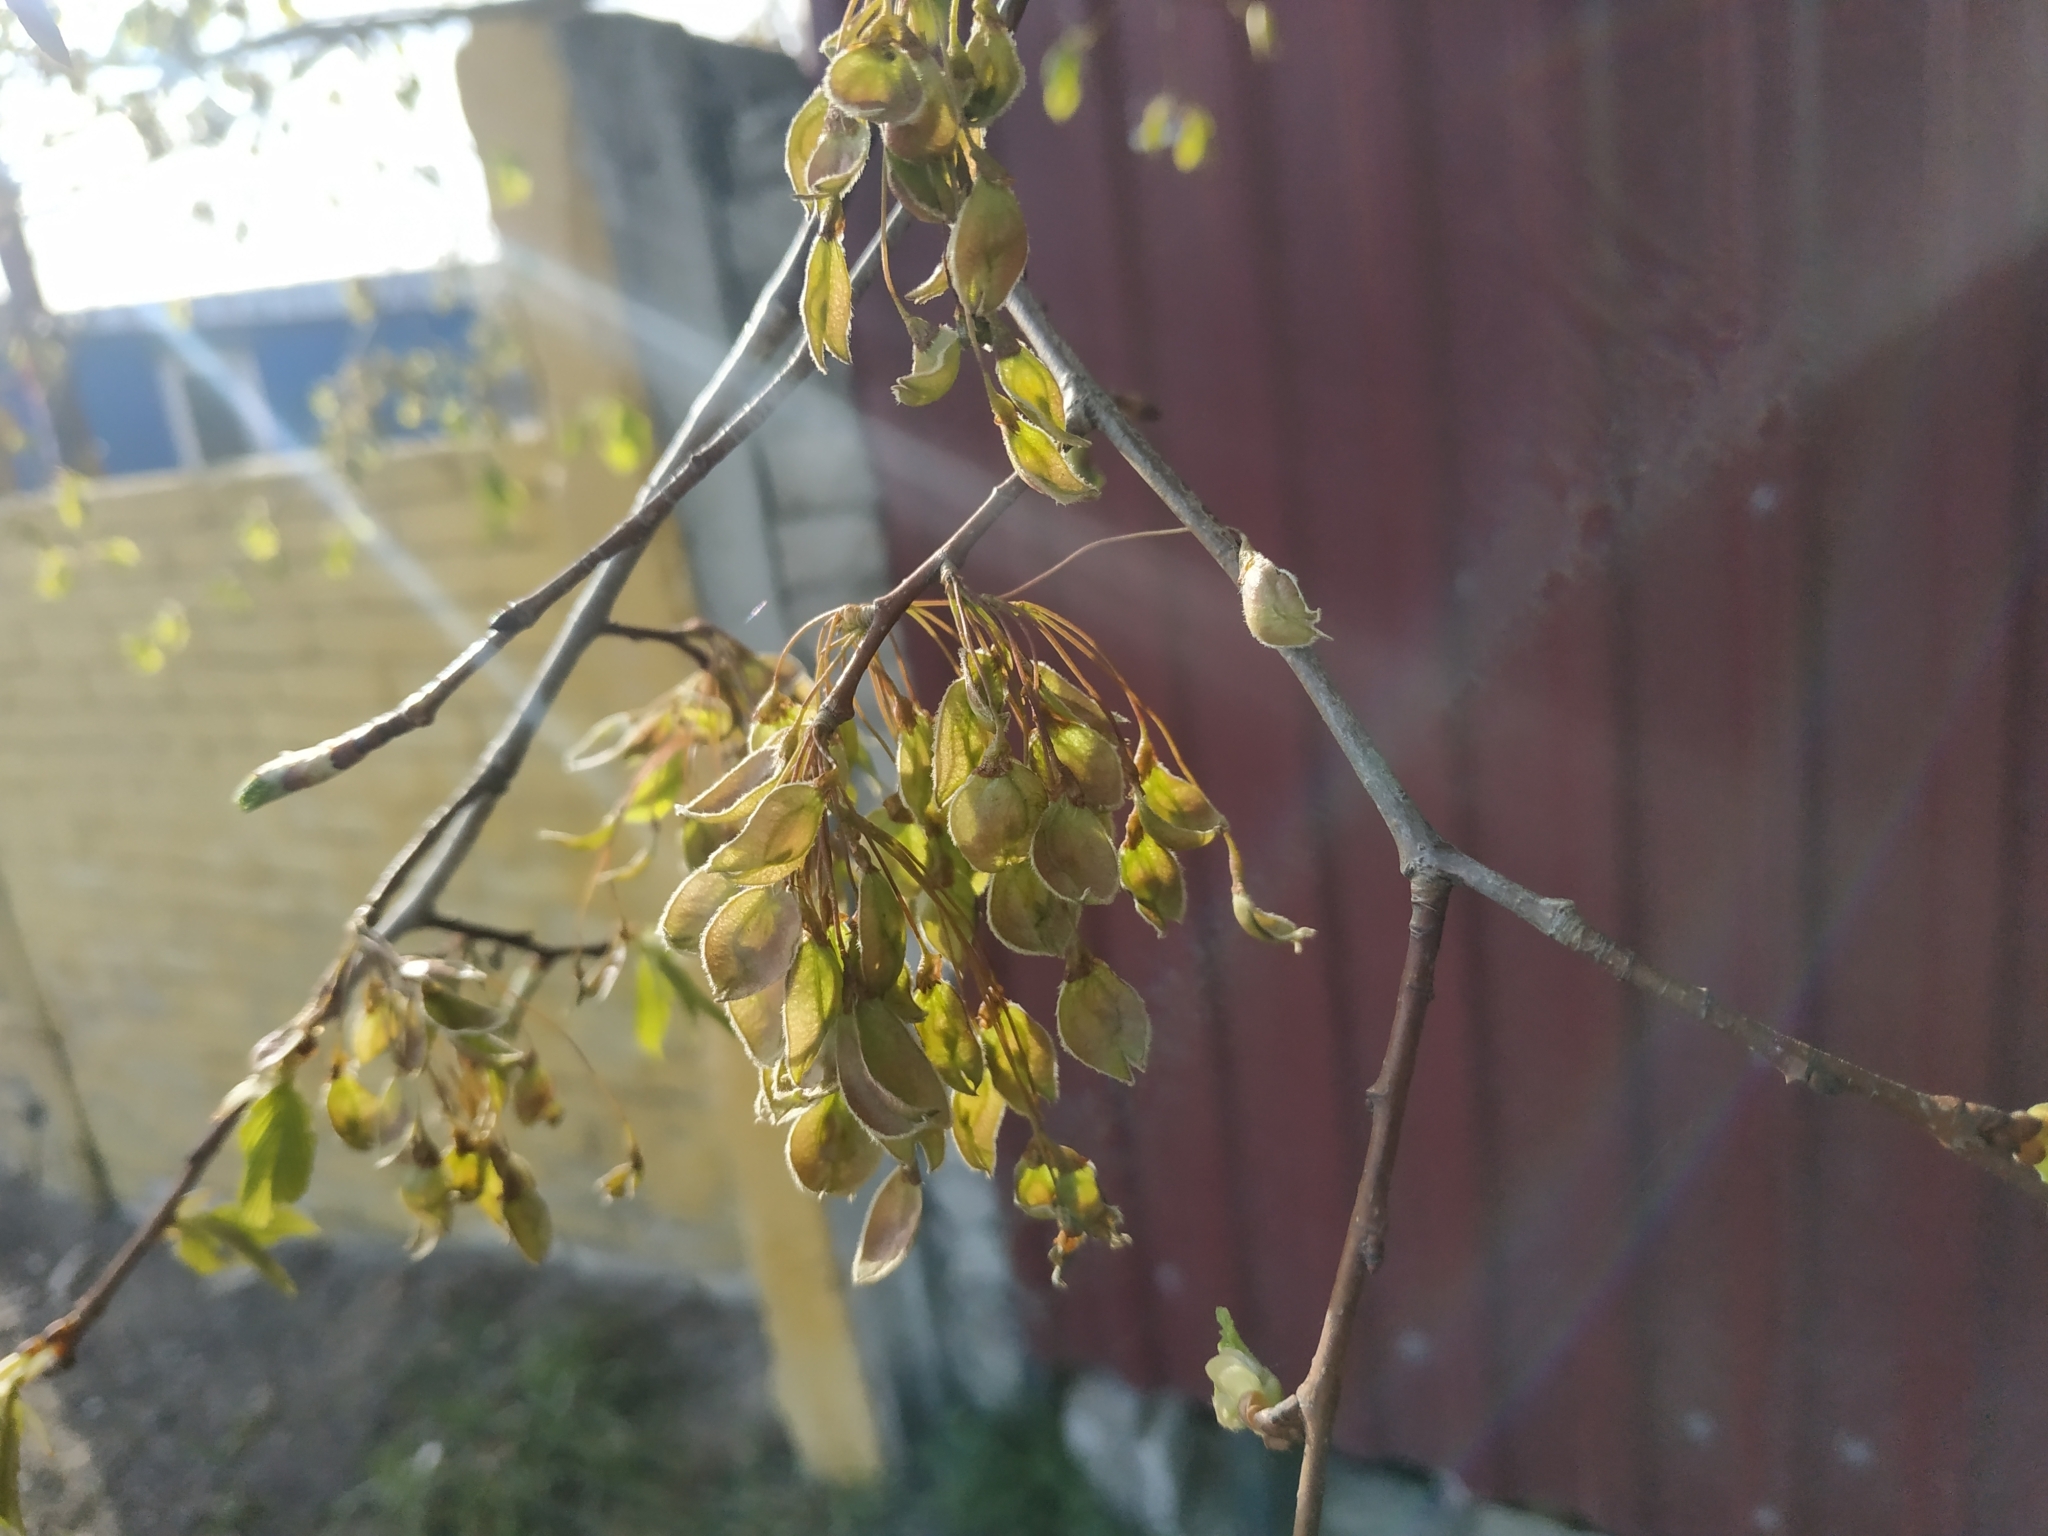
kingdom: Plantae
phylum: Tracheophyta
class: Magnoliopsida
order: Rosales
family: Ulmaceae
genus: Ulmus
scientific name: Ulmus laevis
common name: European white-elm
